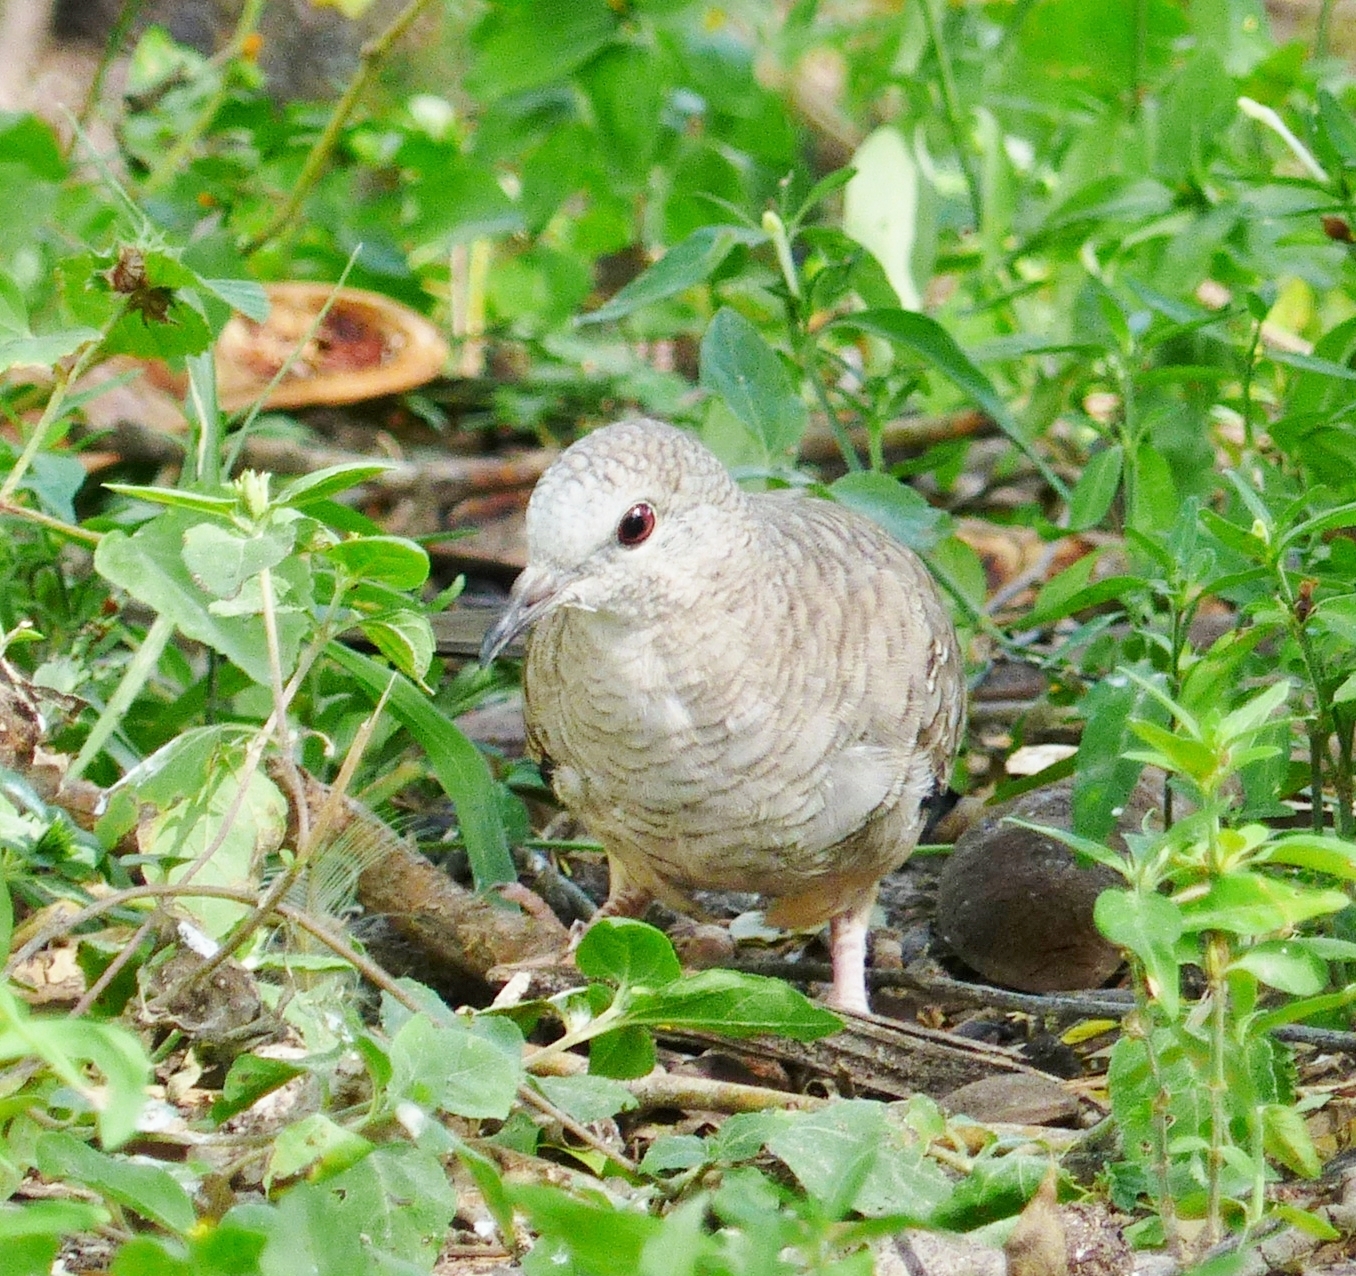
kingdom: Animalia
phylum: Chordata
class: Aves
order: Columbiformes
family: Columbidae
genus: Columbina
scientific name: Columbina inca
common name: Inca dove
